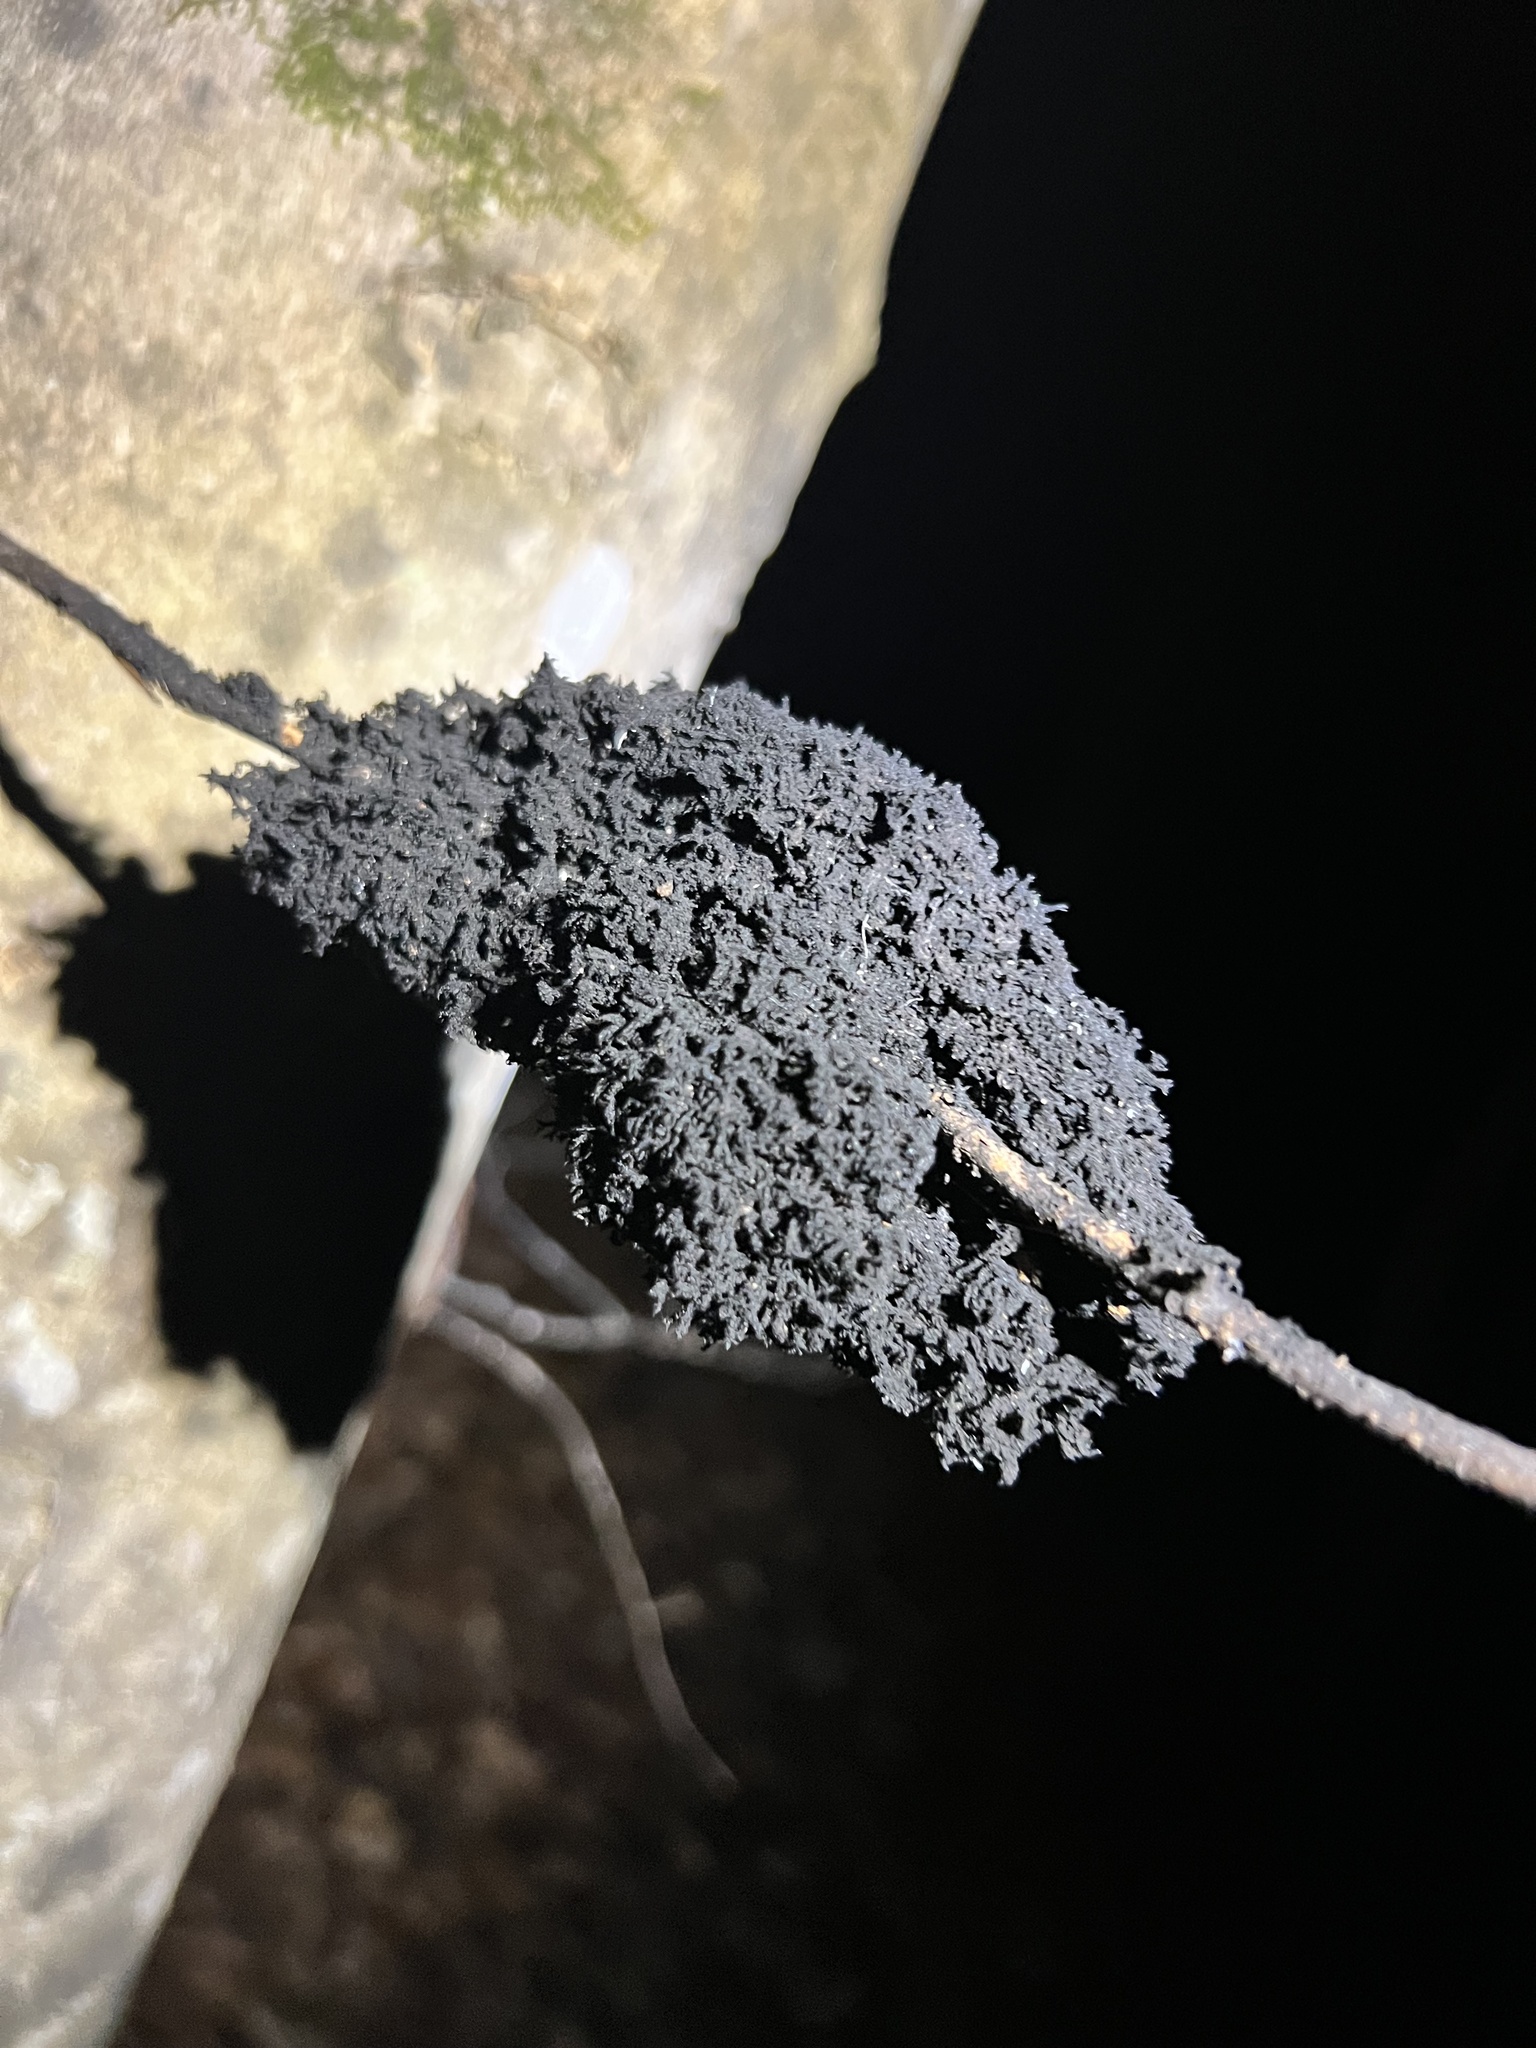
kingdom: Fungi
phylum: Ascomycota
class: Dothideomycetes
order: Capnodiales
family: Capnodiaceae
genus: Scorias
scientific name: Scorias spongiosa
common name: Black sooty mold
